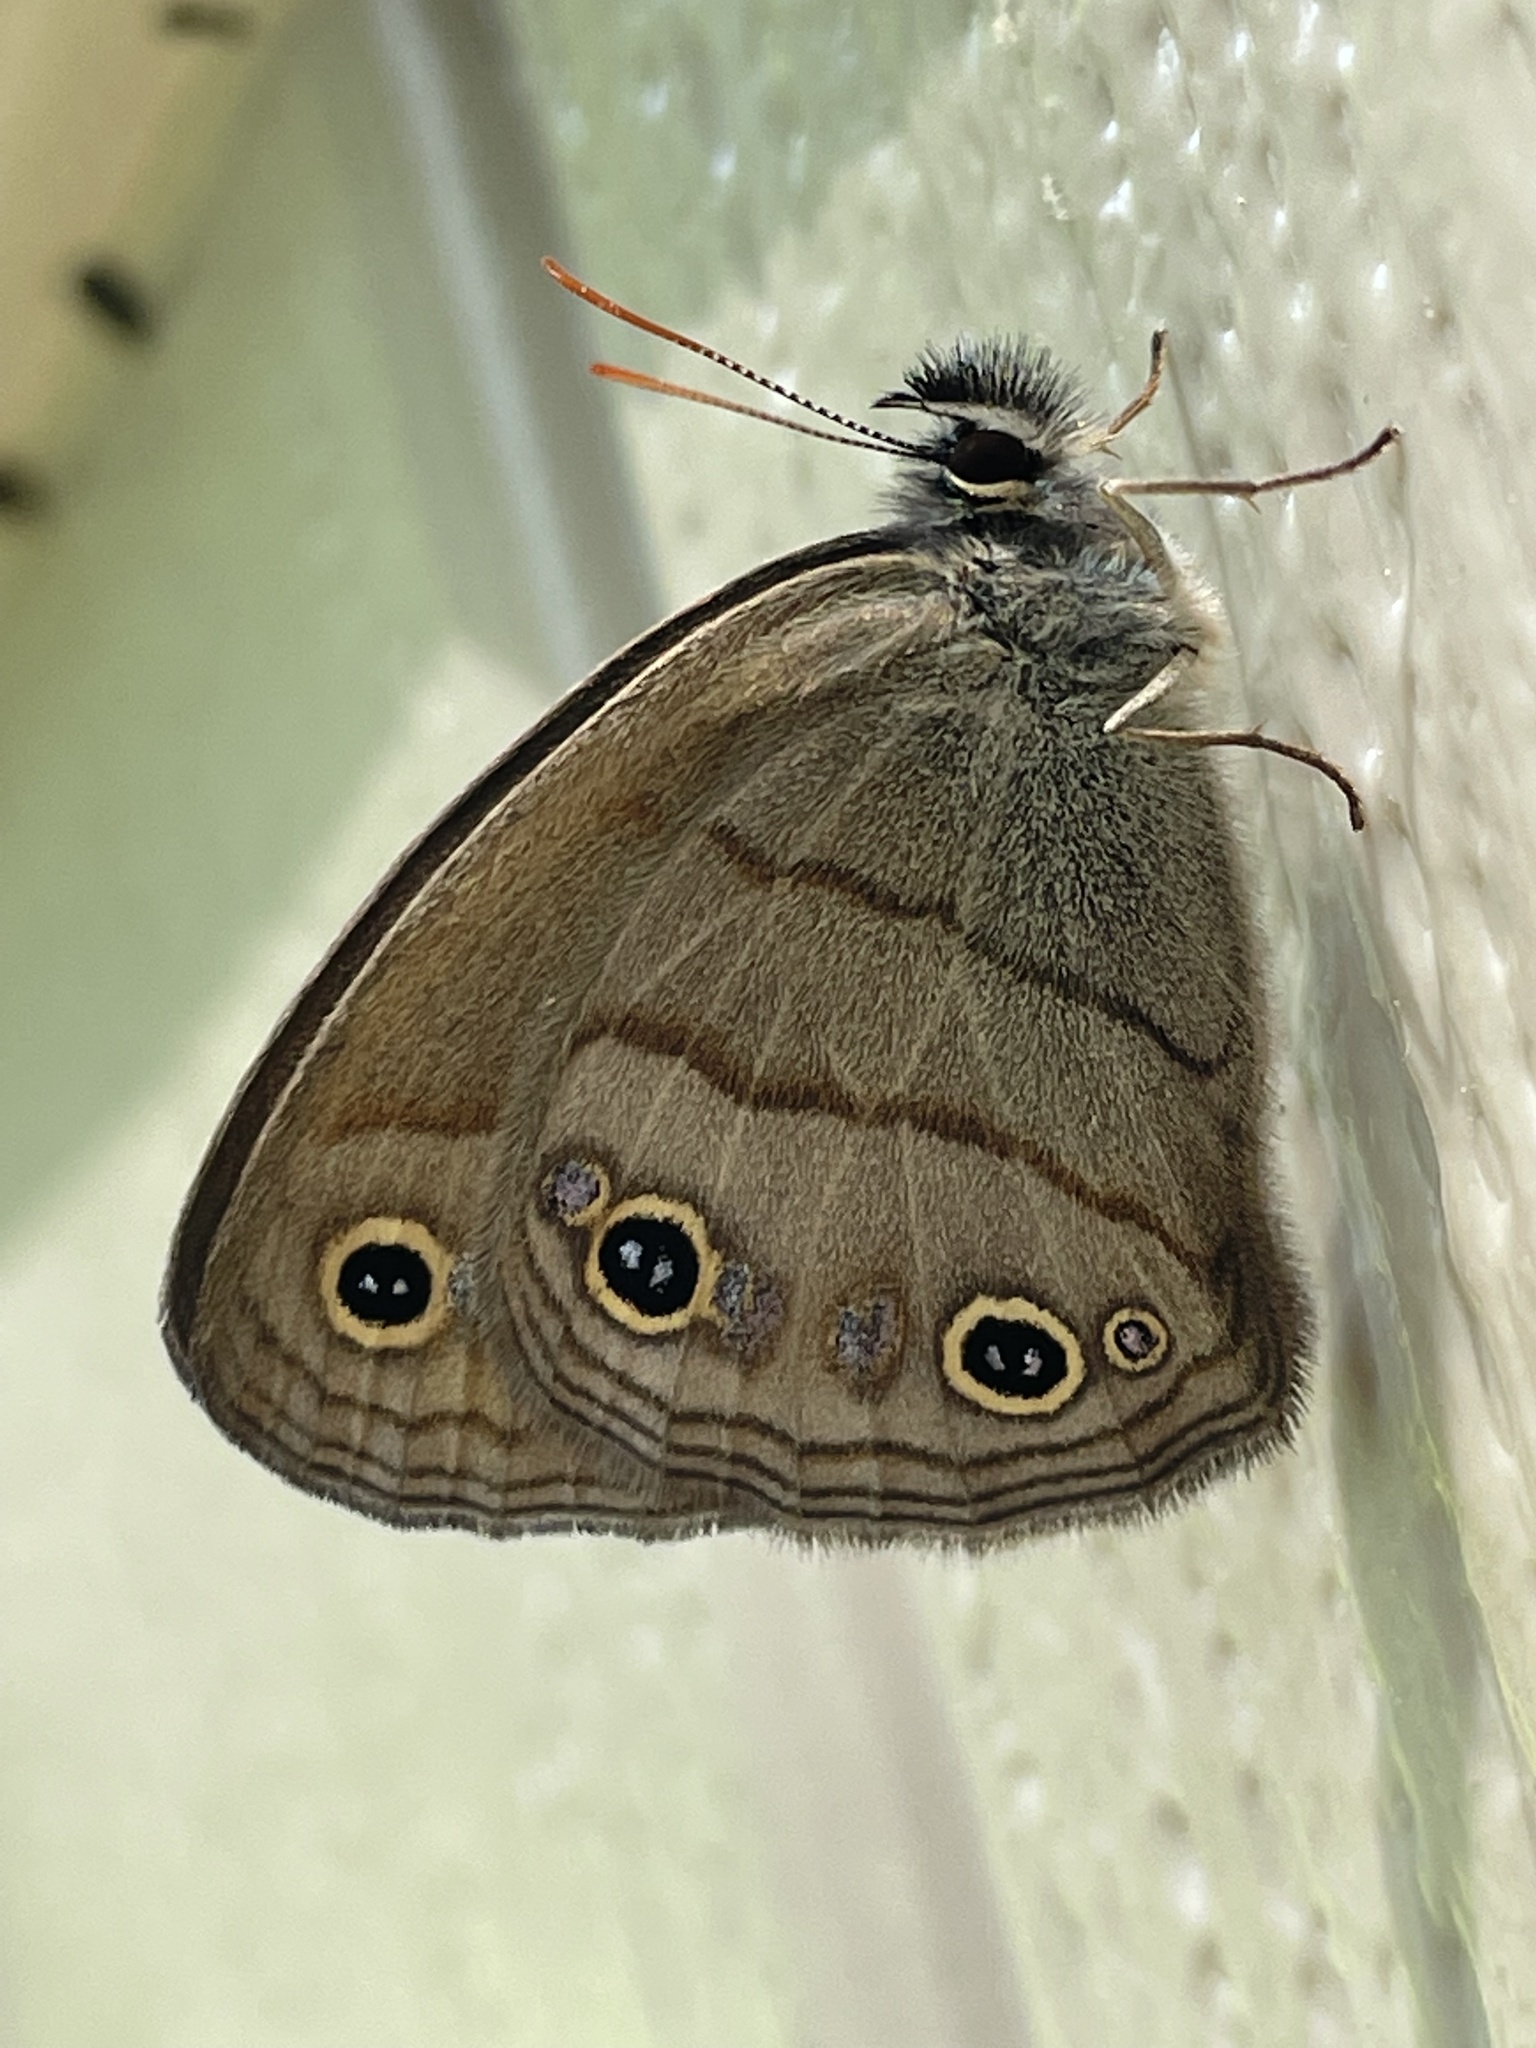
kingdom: Animalia
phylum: Arthropoda
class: Insecta
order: Lepidoptera
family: Nymphalidae
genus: Euptychia
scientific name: Euptychia cymela
